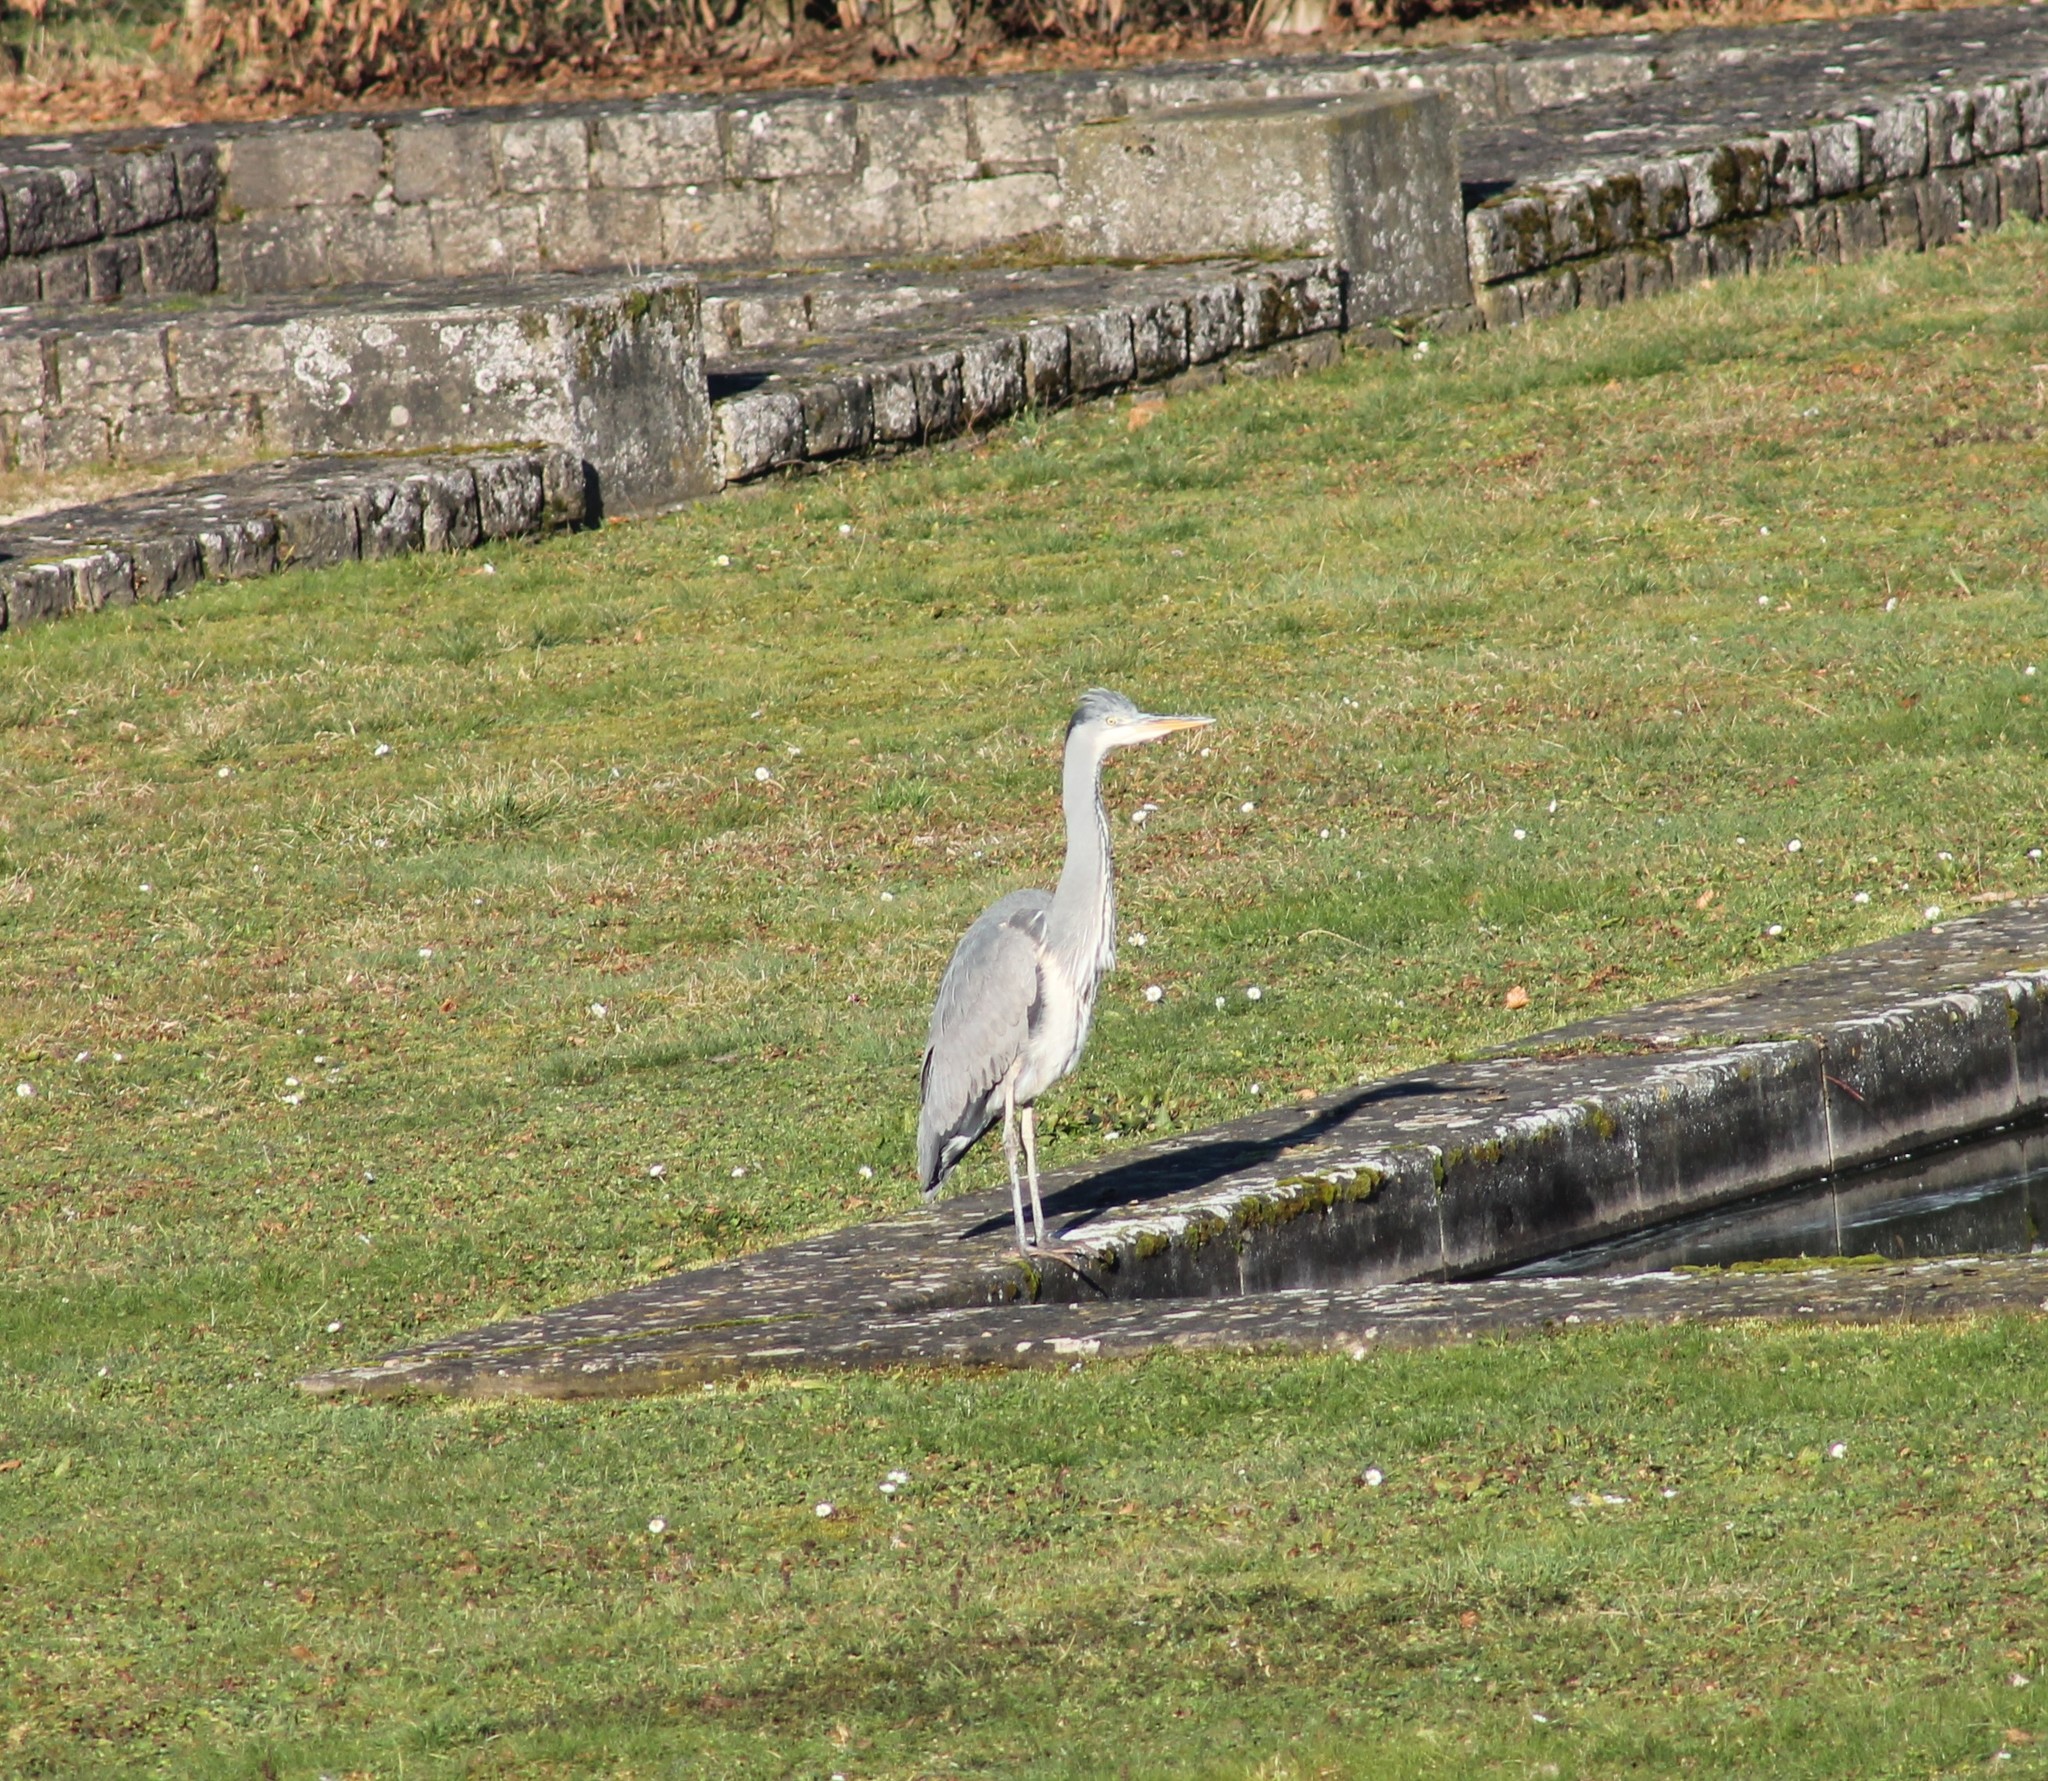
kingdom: Animalia
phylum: Chordata
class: Aves
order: Pelecaniformes
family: Ardeidae
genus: Ardea
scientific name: Ardea cinerea
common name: Grey heron
